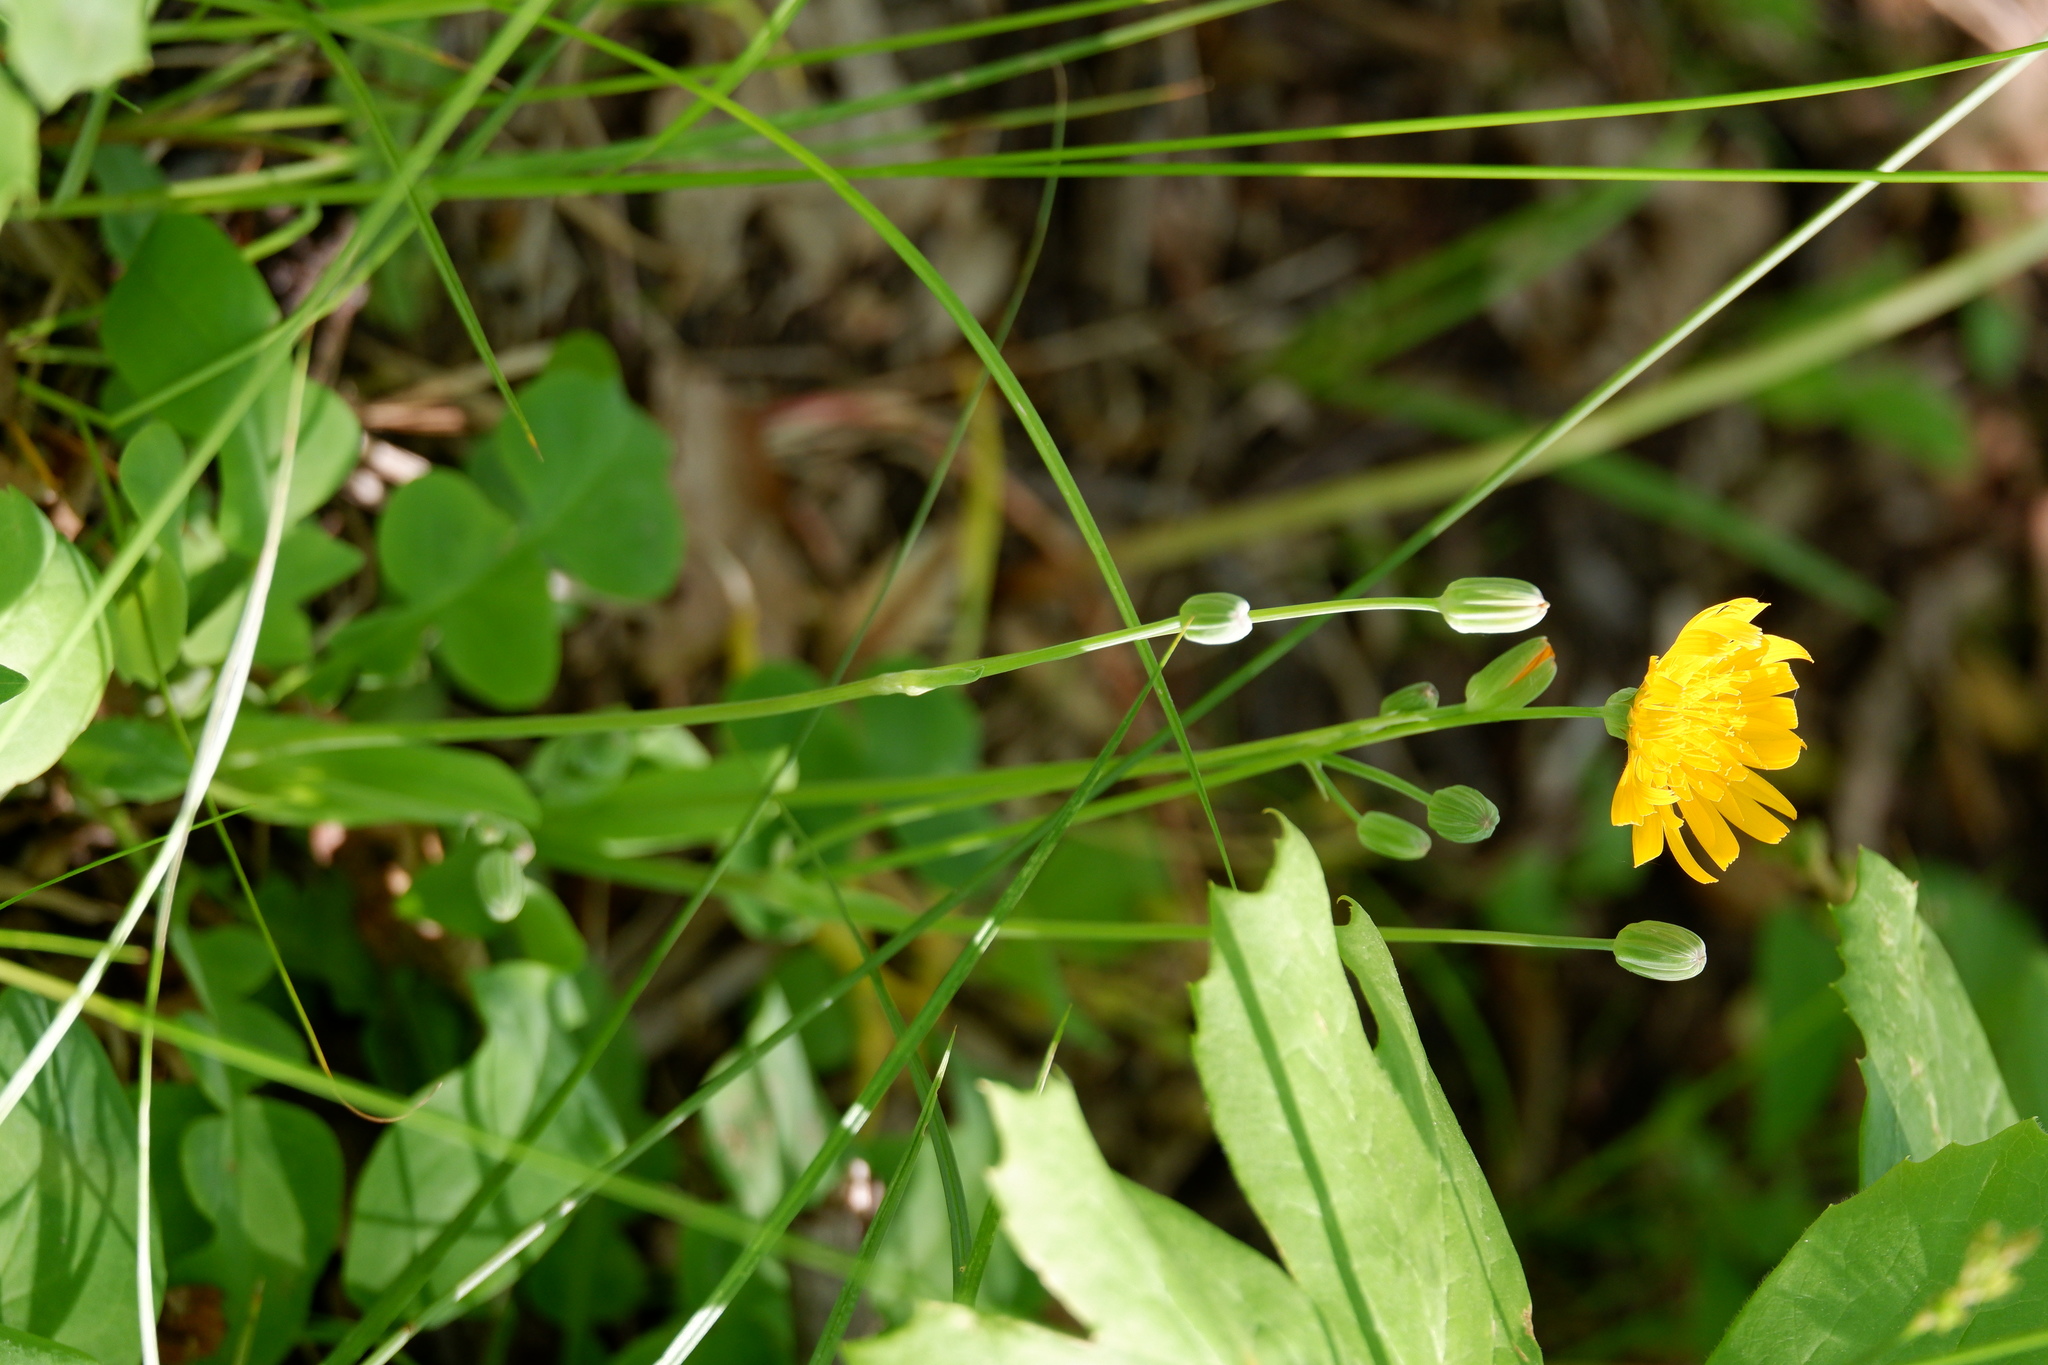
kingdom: Plantae
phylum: Tracheophyta
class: Magnoliopsida
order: Asterales
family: Asteraceae
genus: Krigia
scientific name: Krigia biflora
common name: Orange dwarf-dandelion
